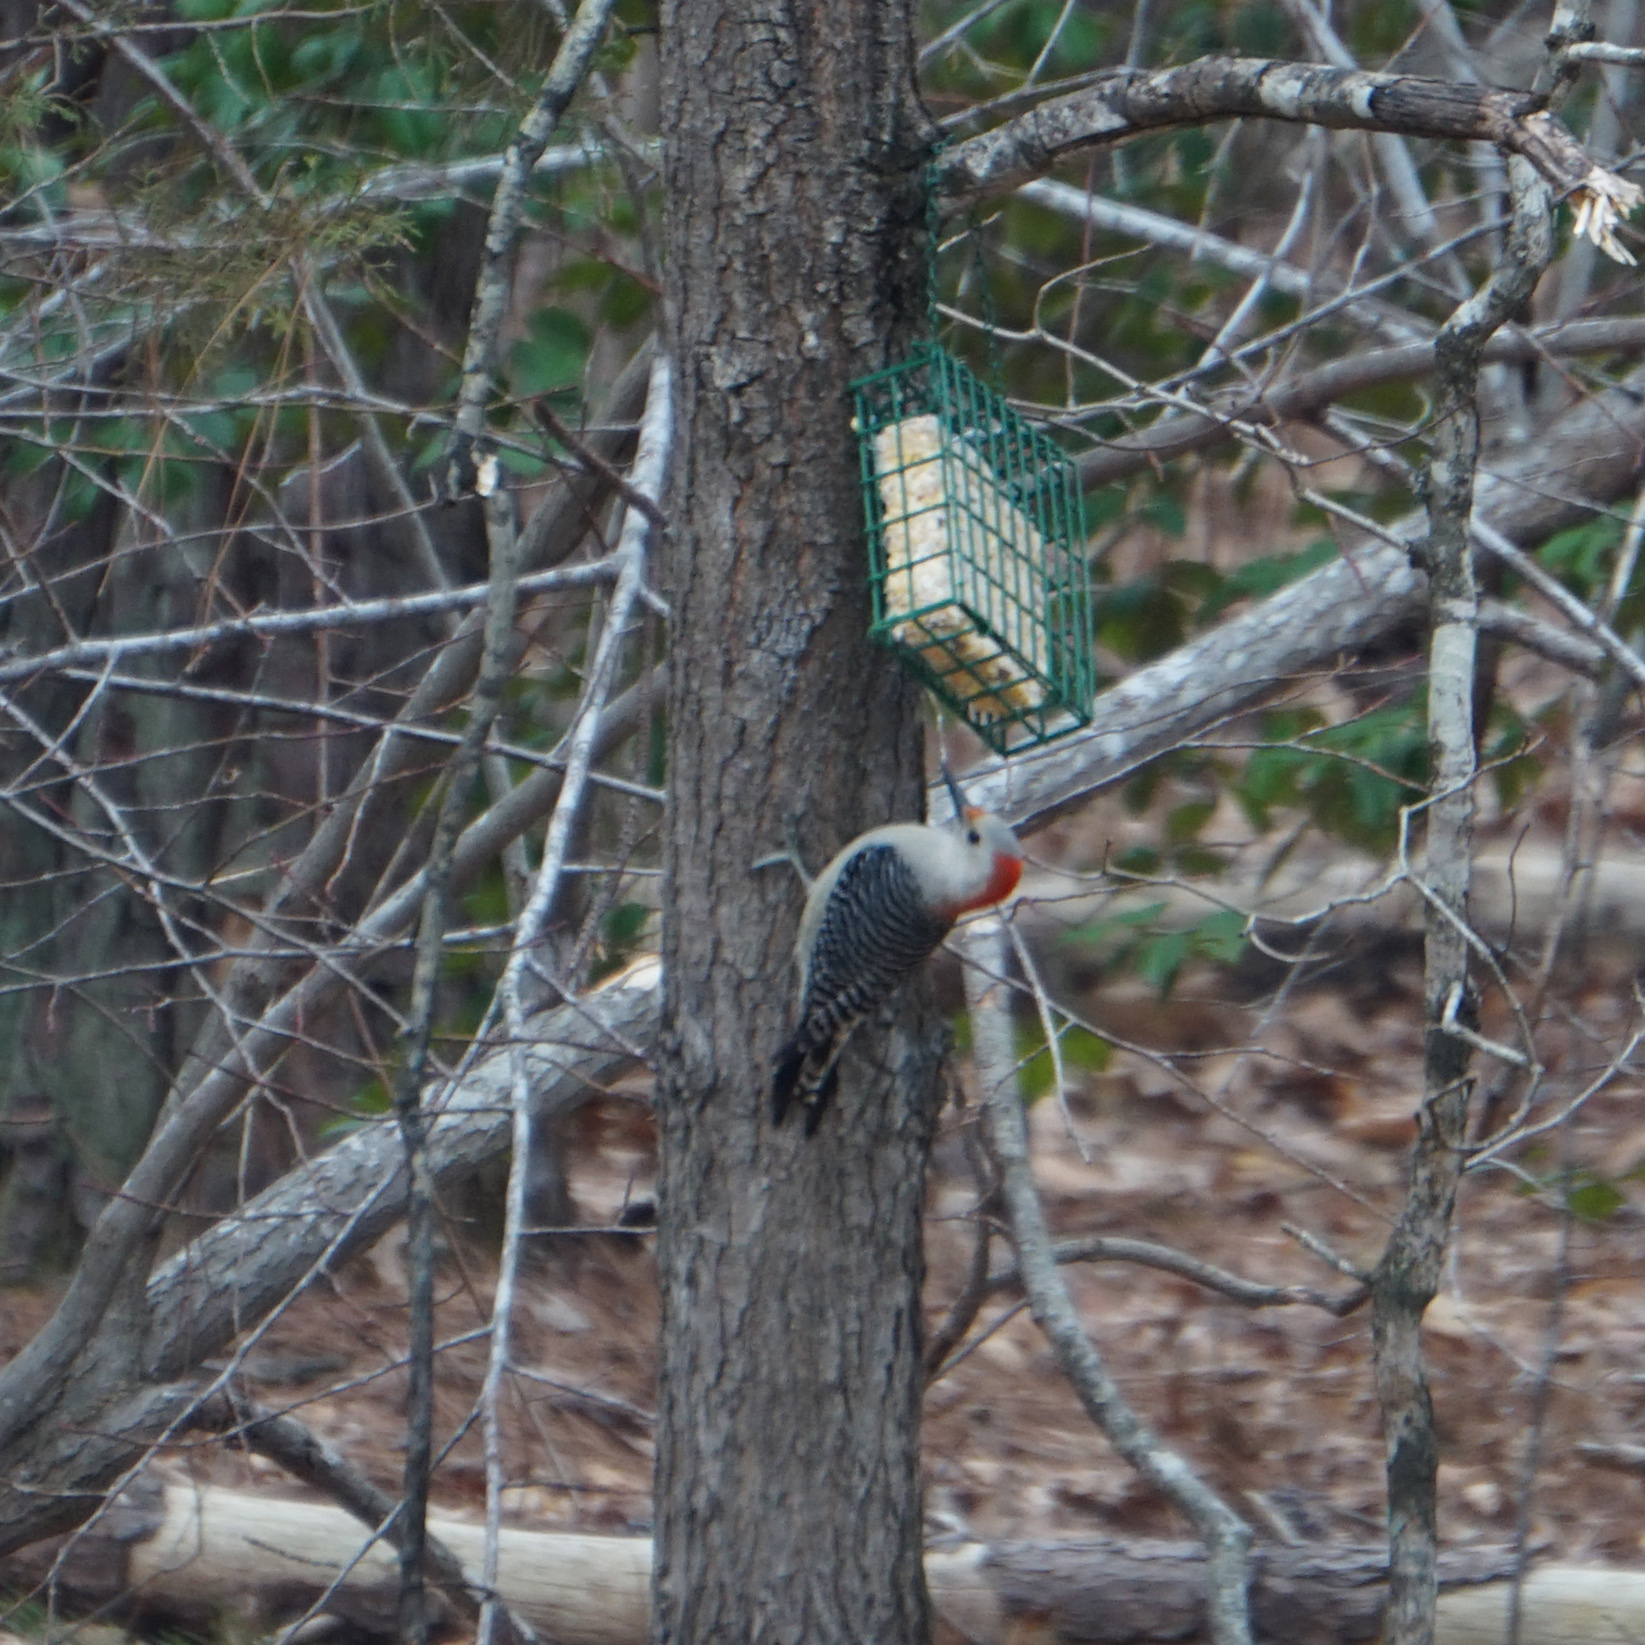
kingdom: Animalia
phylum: Chordata
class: Aves
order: Piciformes
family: Picidae
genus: Melanerpes
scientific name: Melanerpes carolinus
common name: Red-bellied woodpecker
